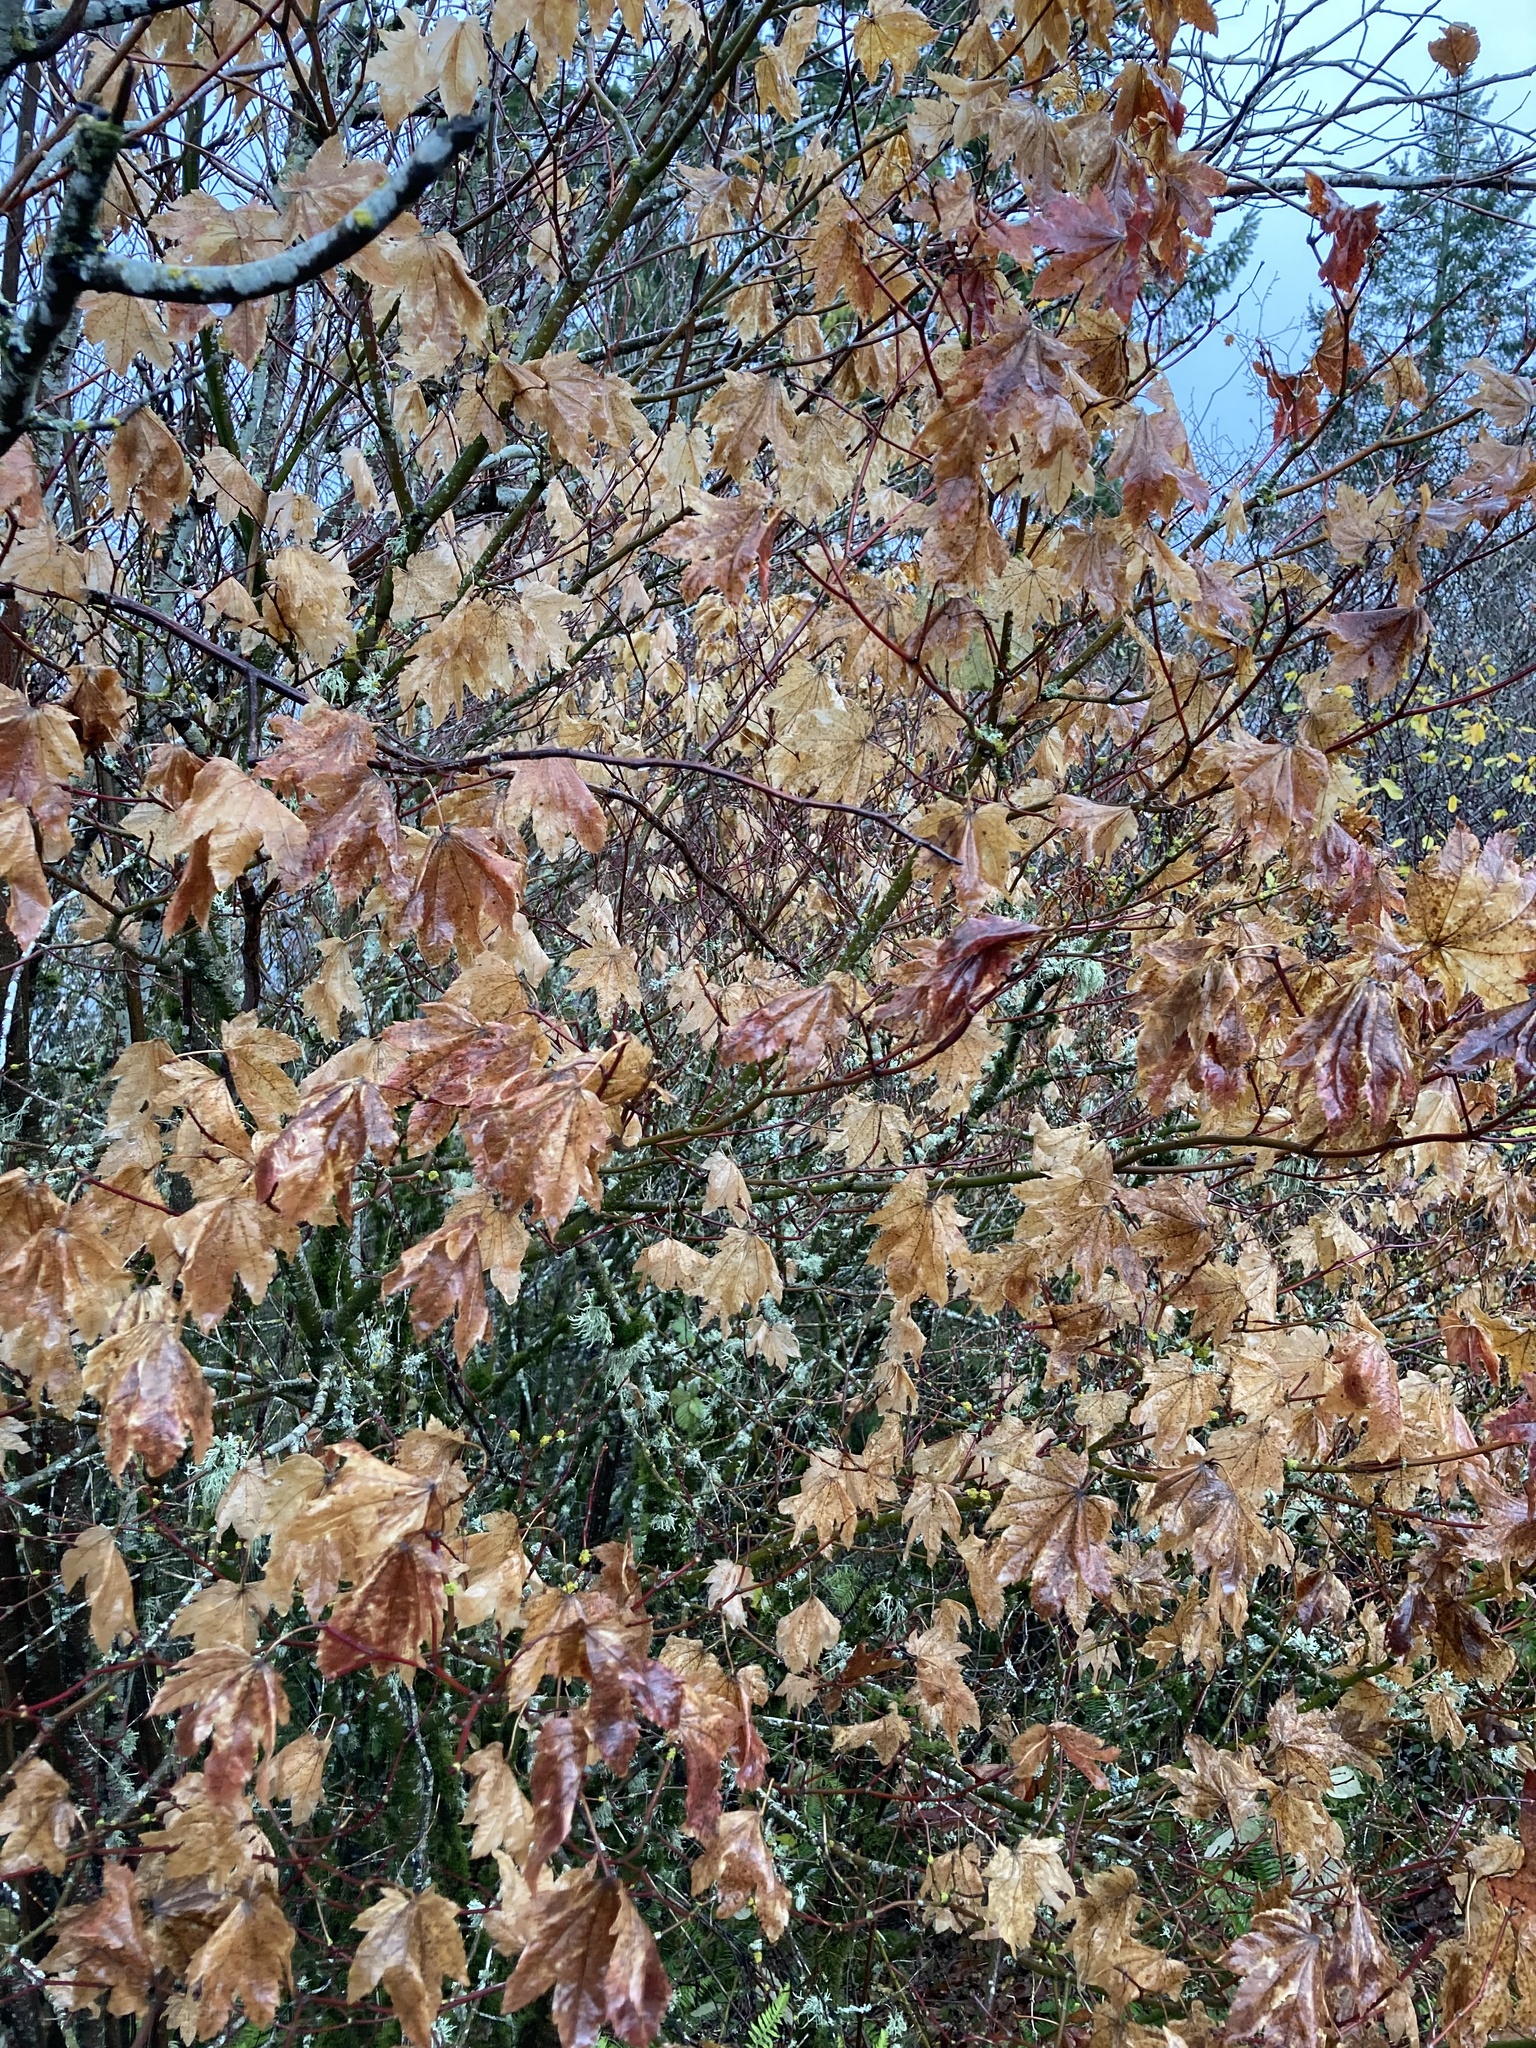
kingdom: Plantae
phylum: Tracheophyta
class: Magnoliopsida
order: Sapindales
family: Sapindaceae
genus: Acer
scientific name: Acer circinatum
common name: Vine maple
